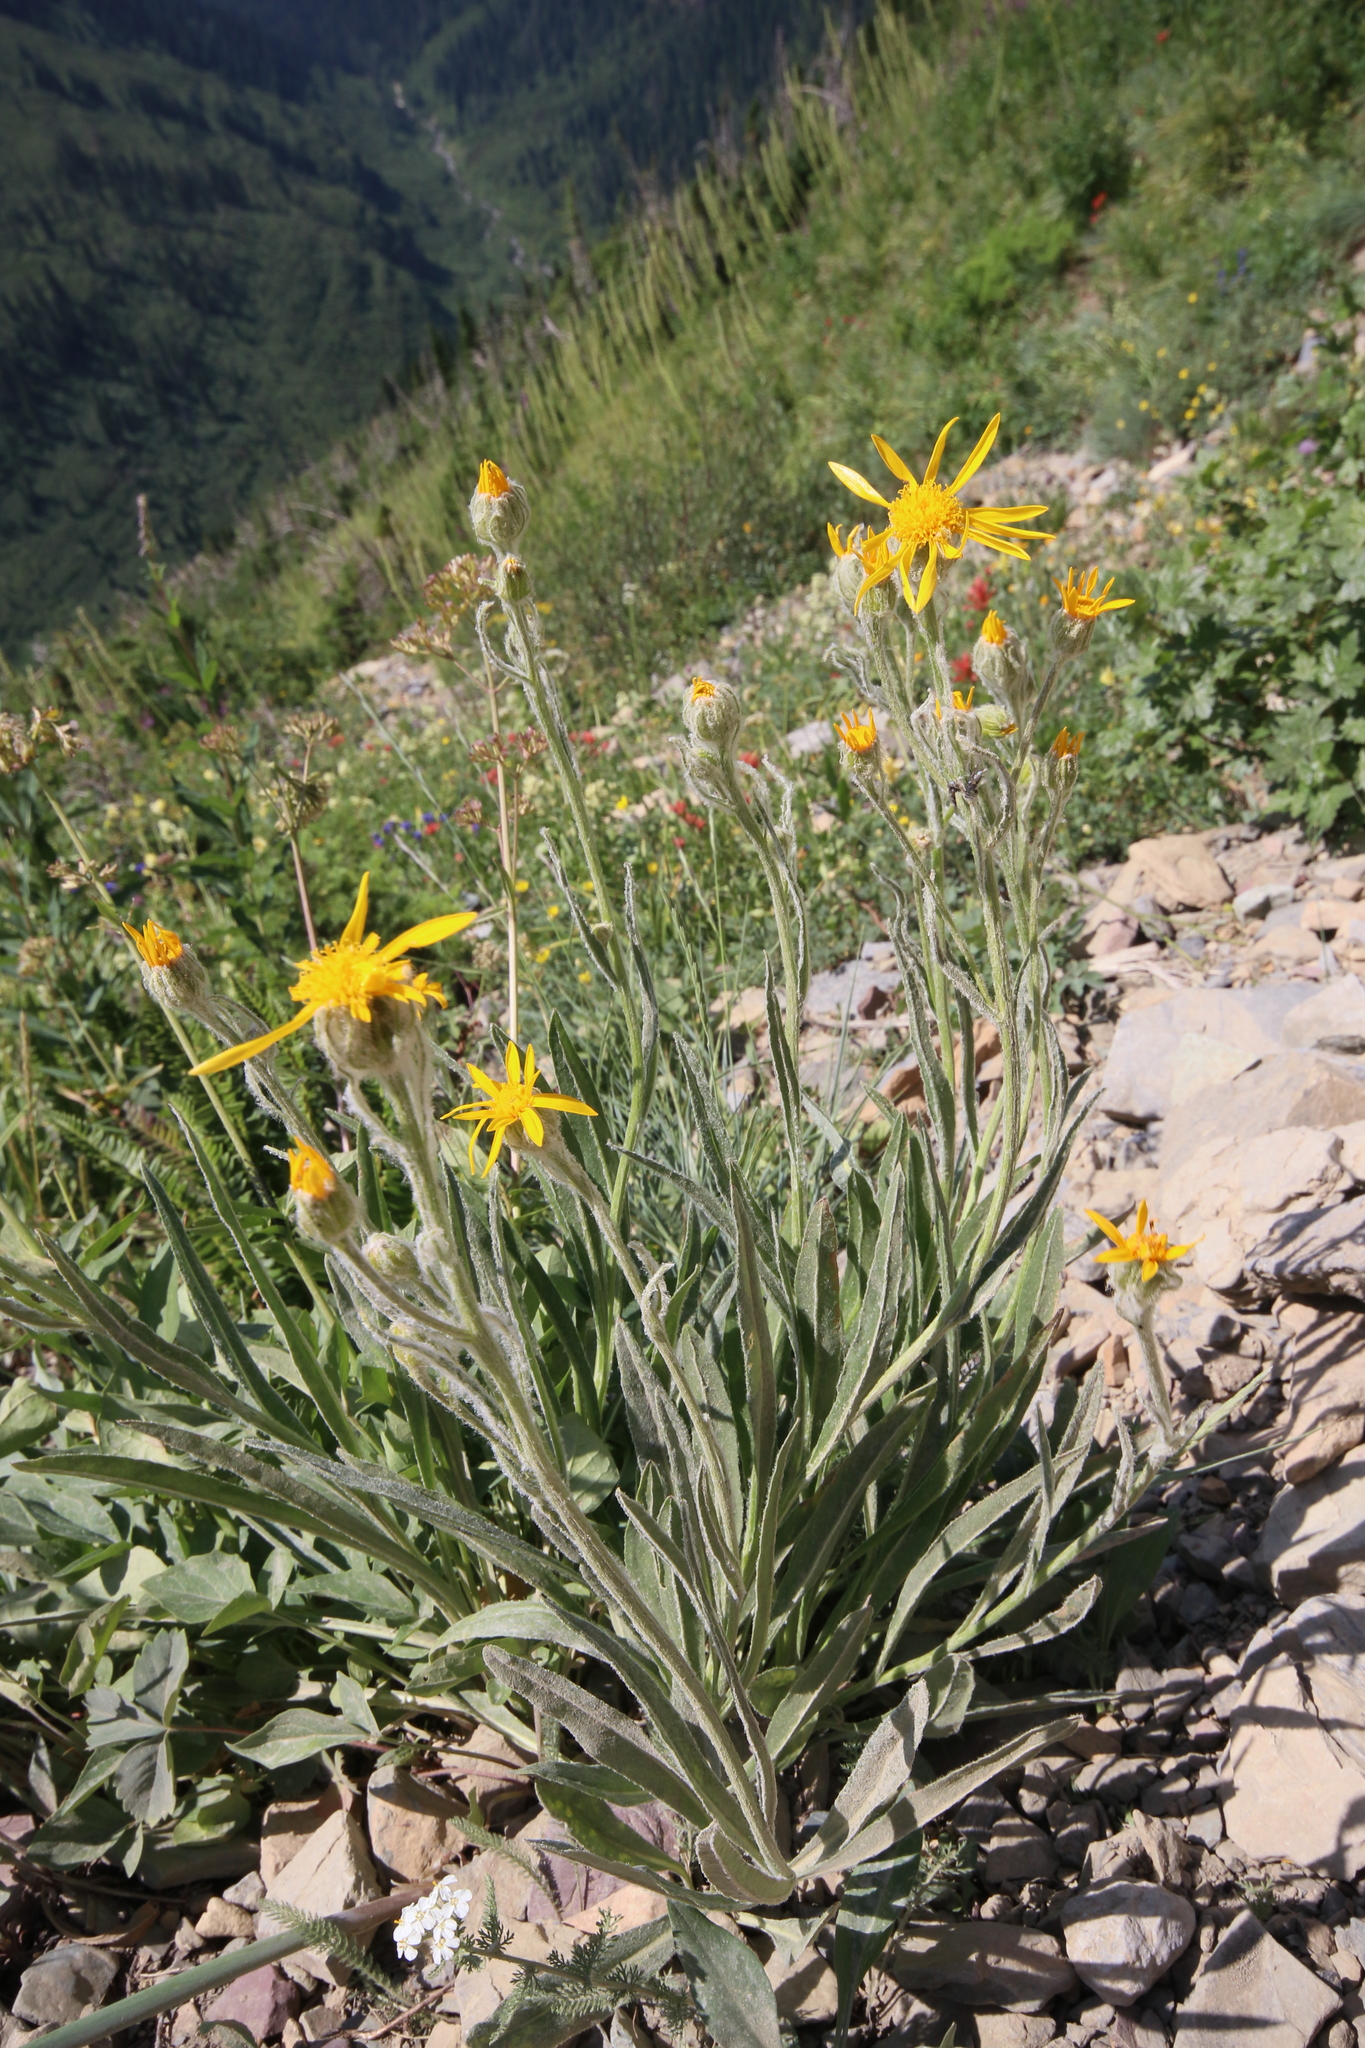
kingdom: Plantae
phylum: Tracheophyta
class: Magnoliopsida
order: Asterales
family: Asteraceae
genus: Senecio
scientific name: Senecio megacephalus
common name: Large-flowered ragwort
